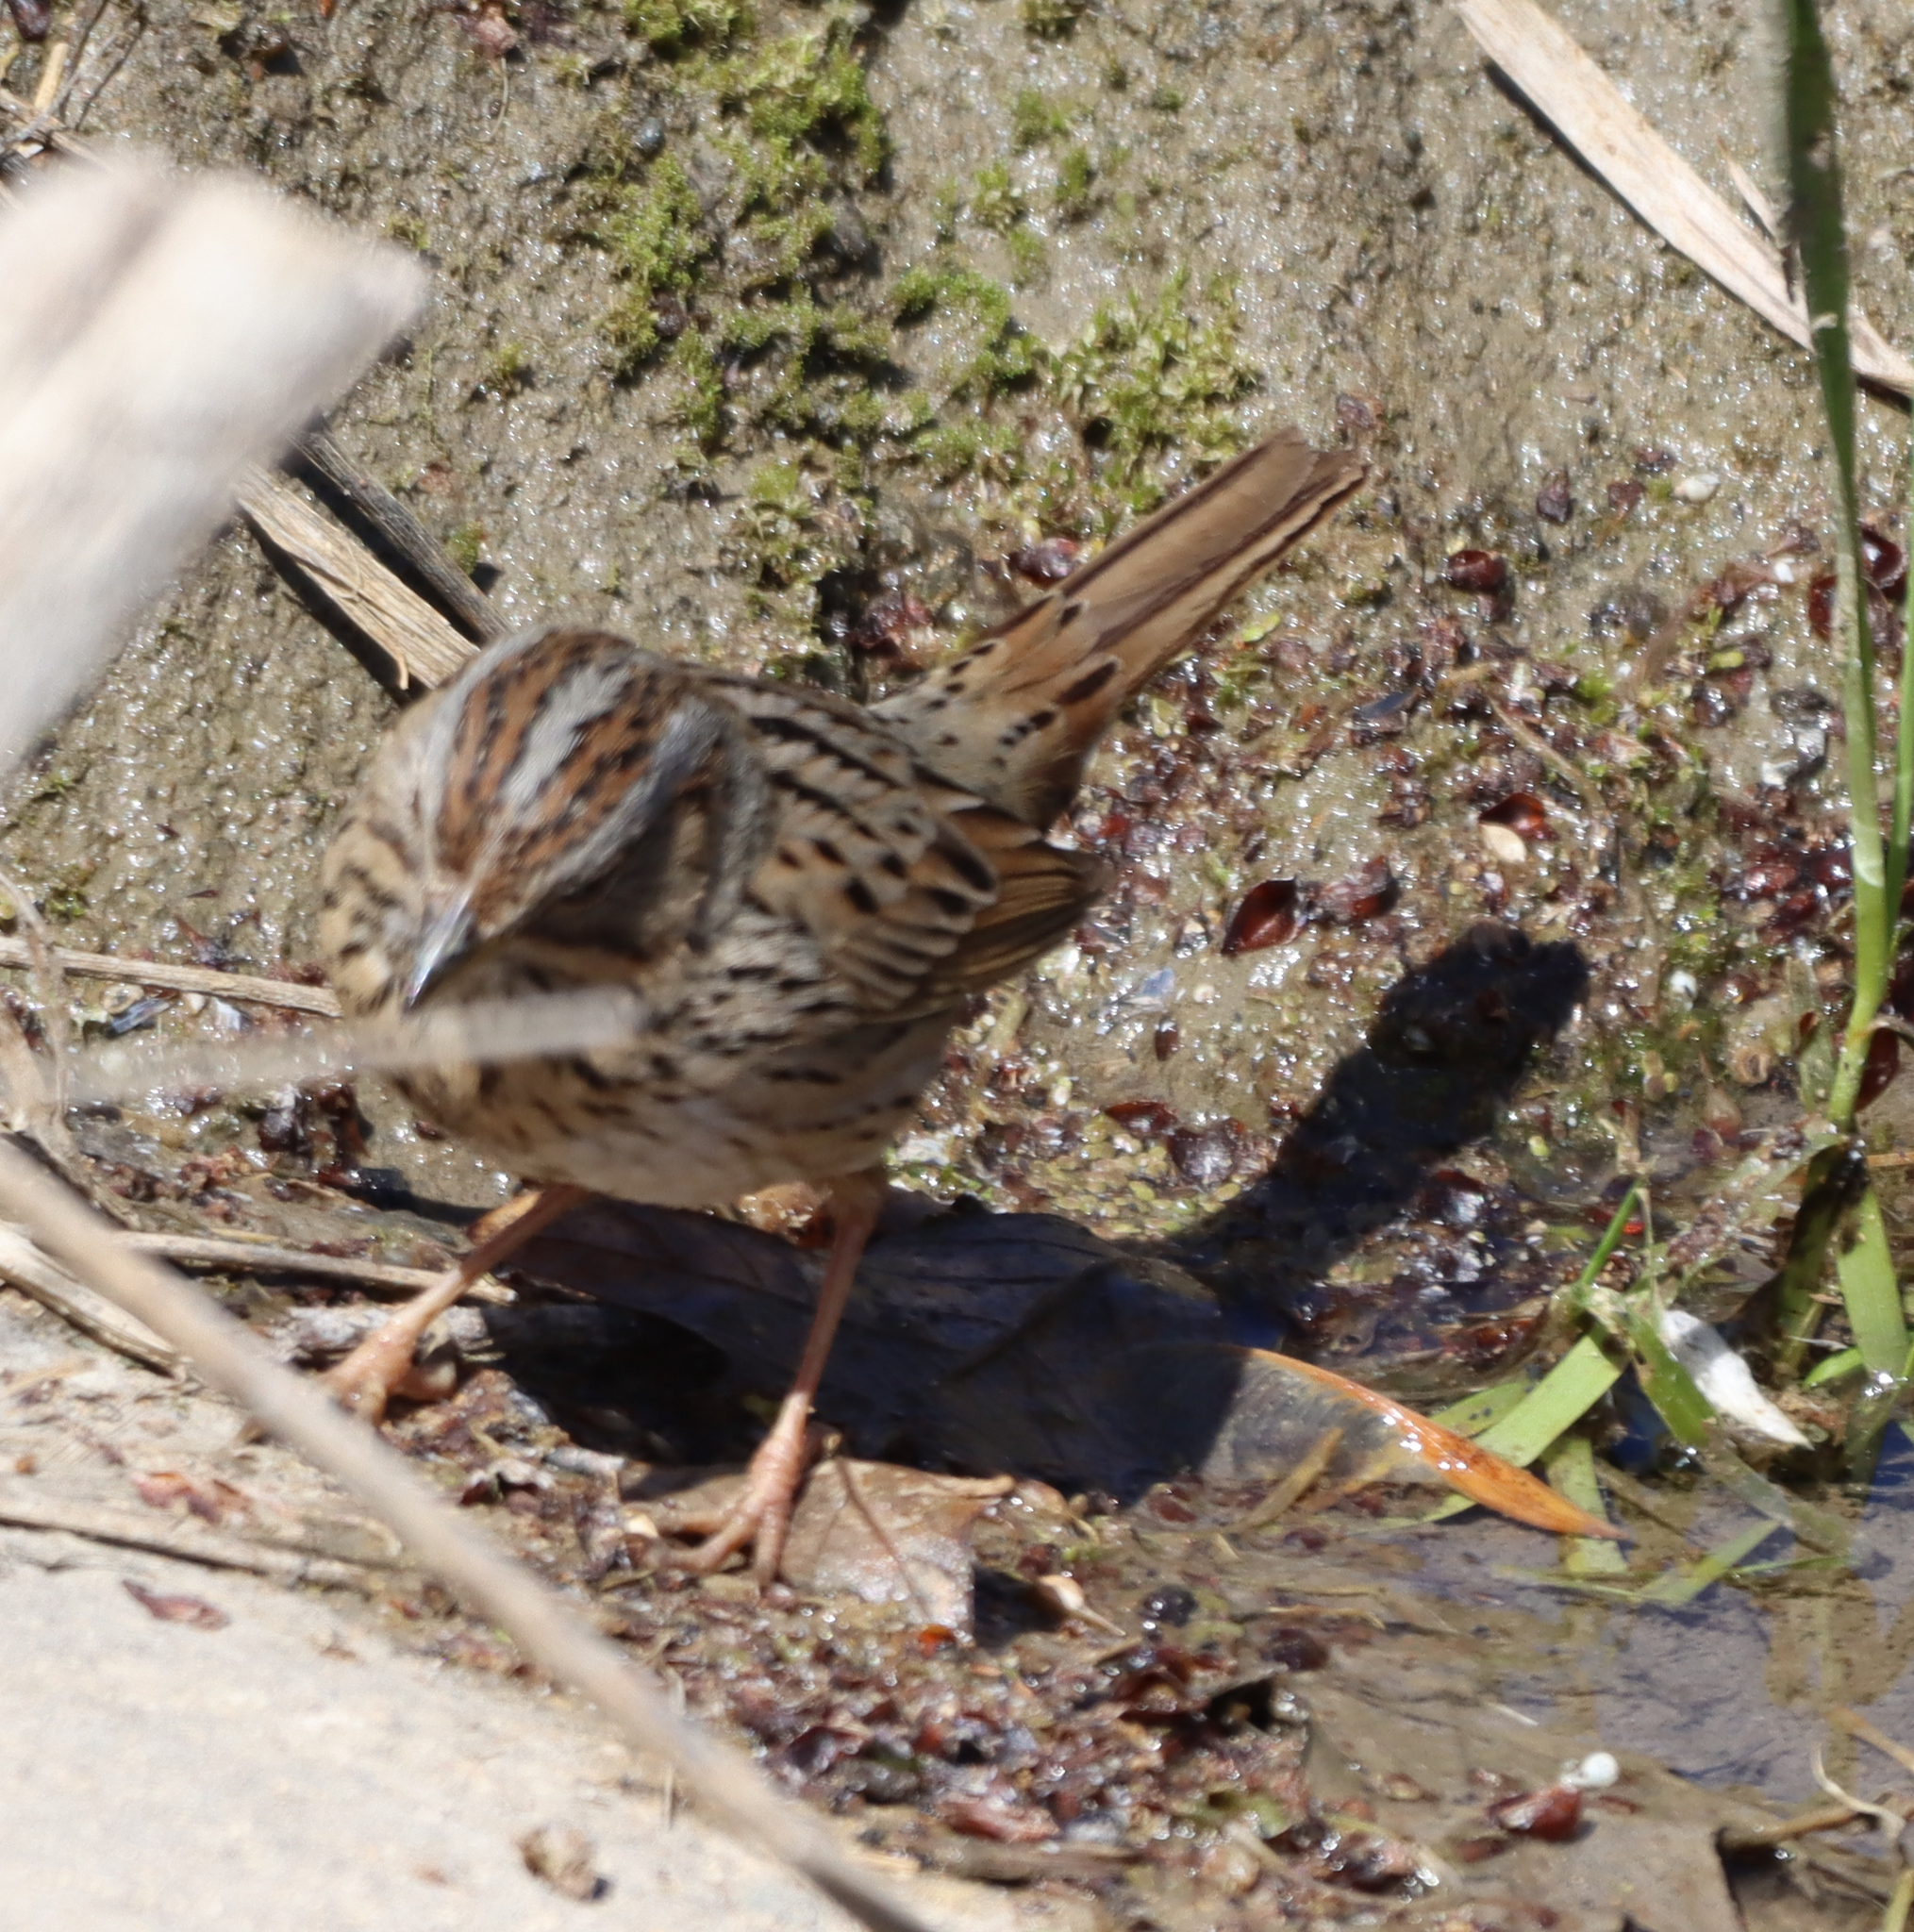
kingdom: Animalia
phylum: Chordata
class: Aves
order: Passeriformes
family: Passerellidae
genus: Melospiza
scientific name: Melospiza lincolnii
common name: Lincoln's sparrow
